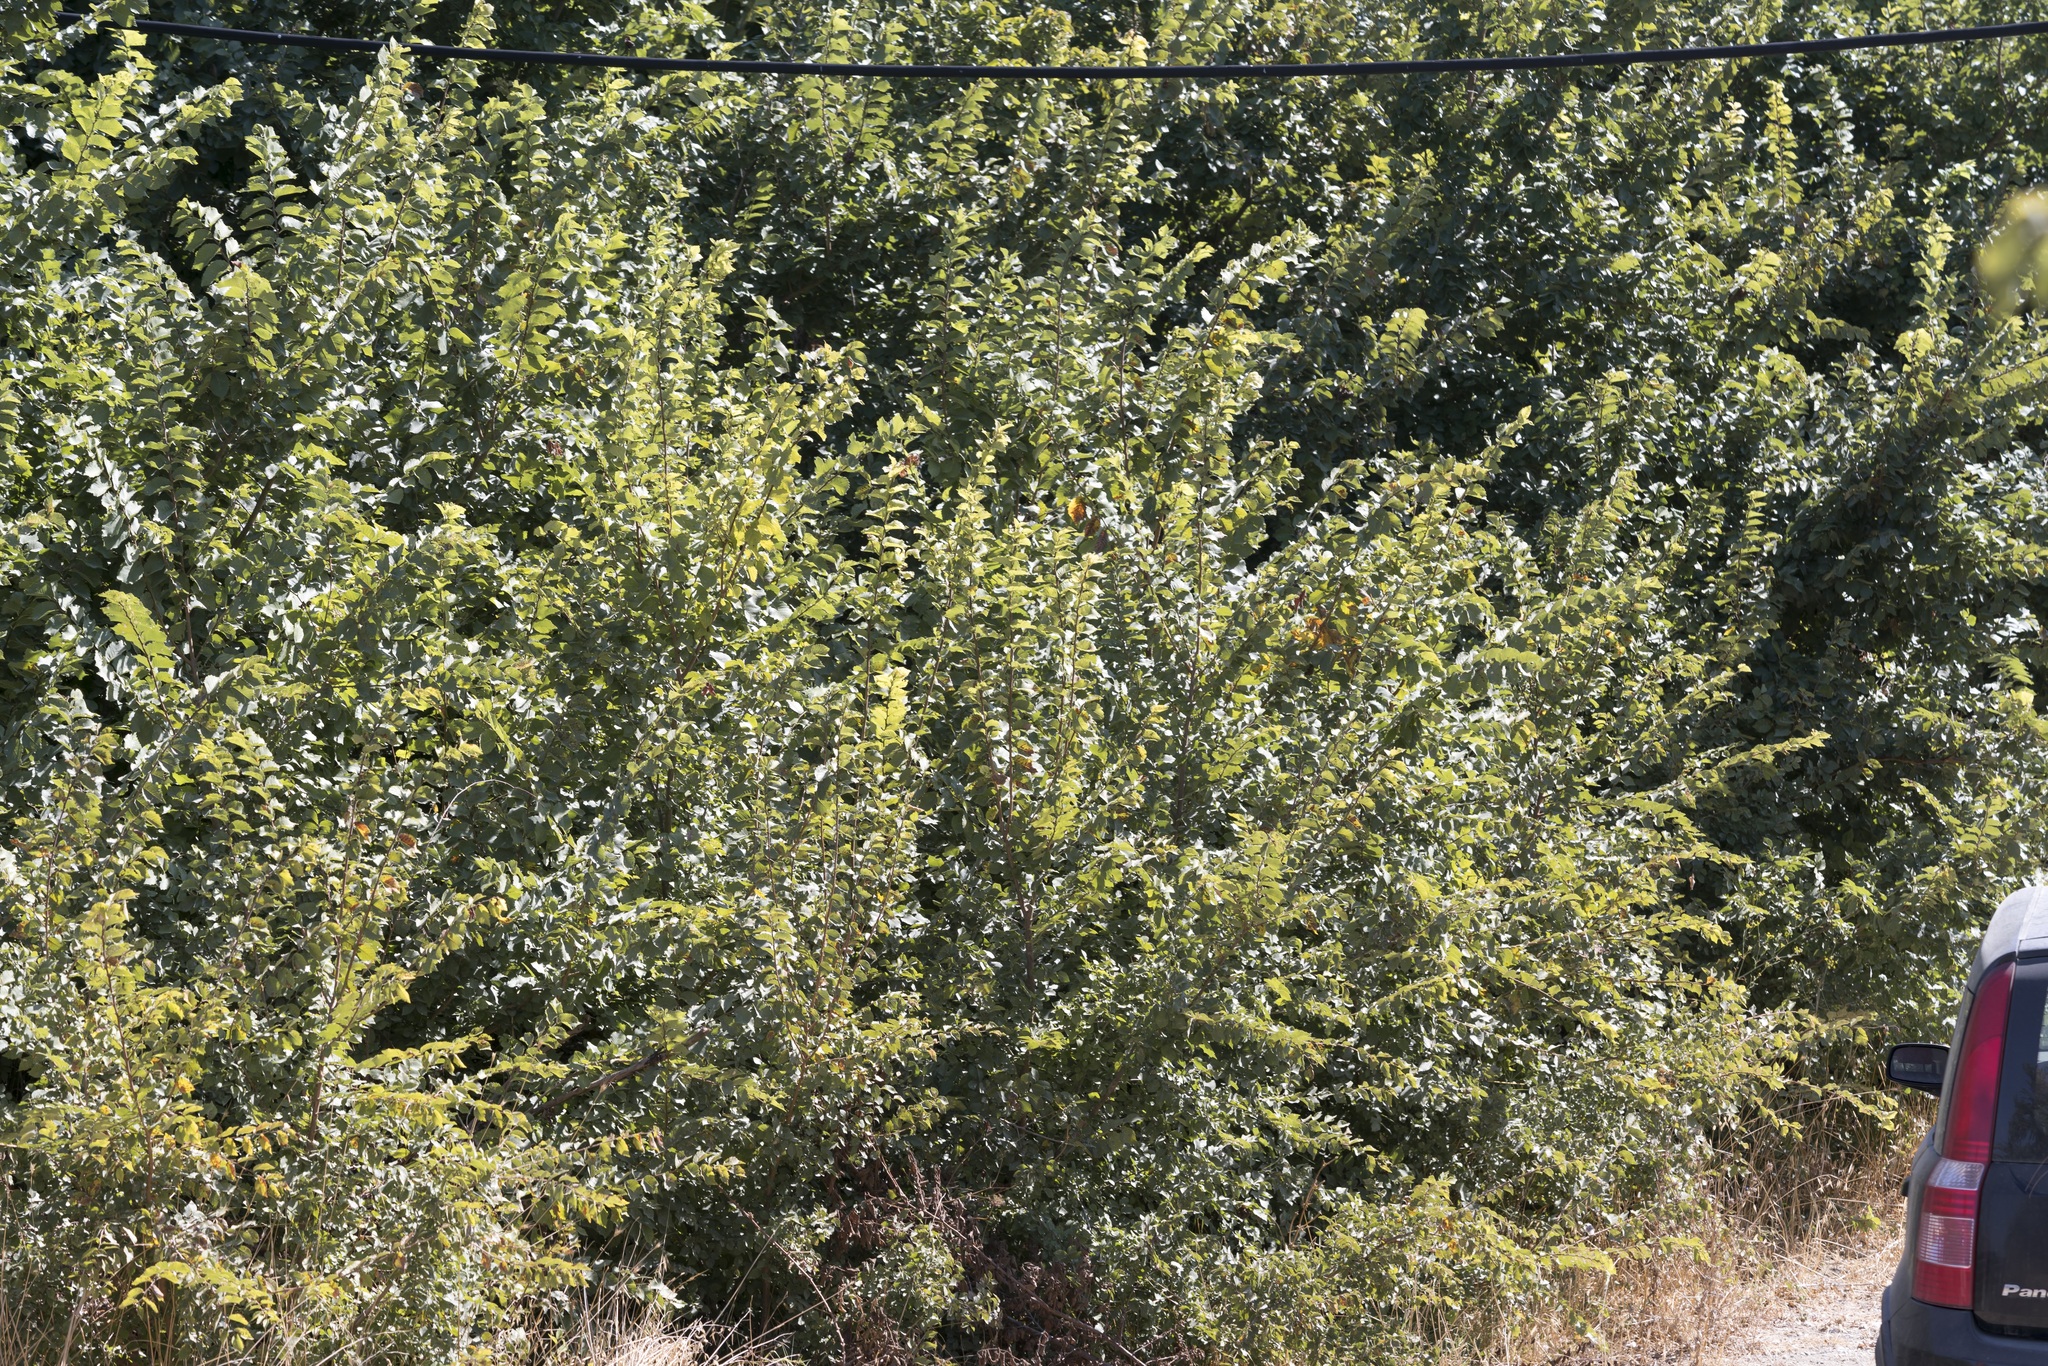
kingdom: Plantae
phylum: Tracheophyta
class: Magnoliopsida
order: Rosales
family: Ulmaceae
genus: Ulmus
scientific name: Ulmus minor
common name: Small-leaved elm
